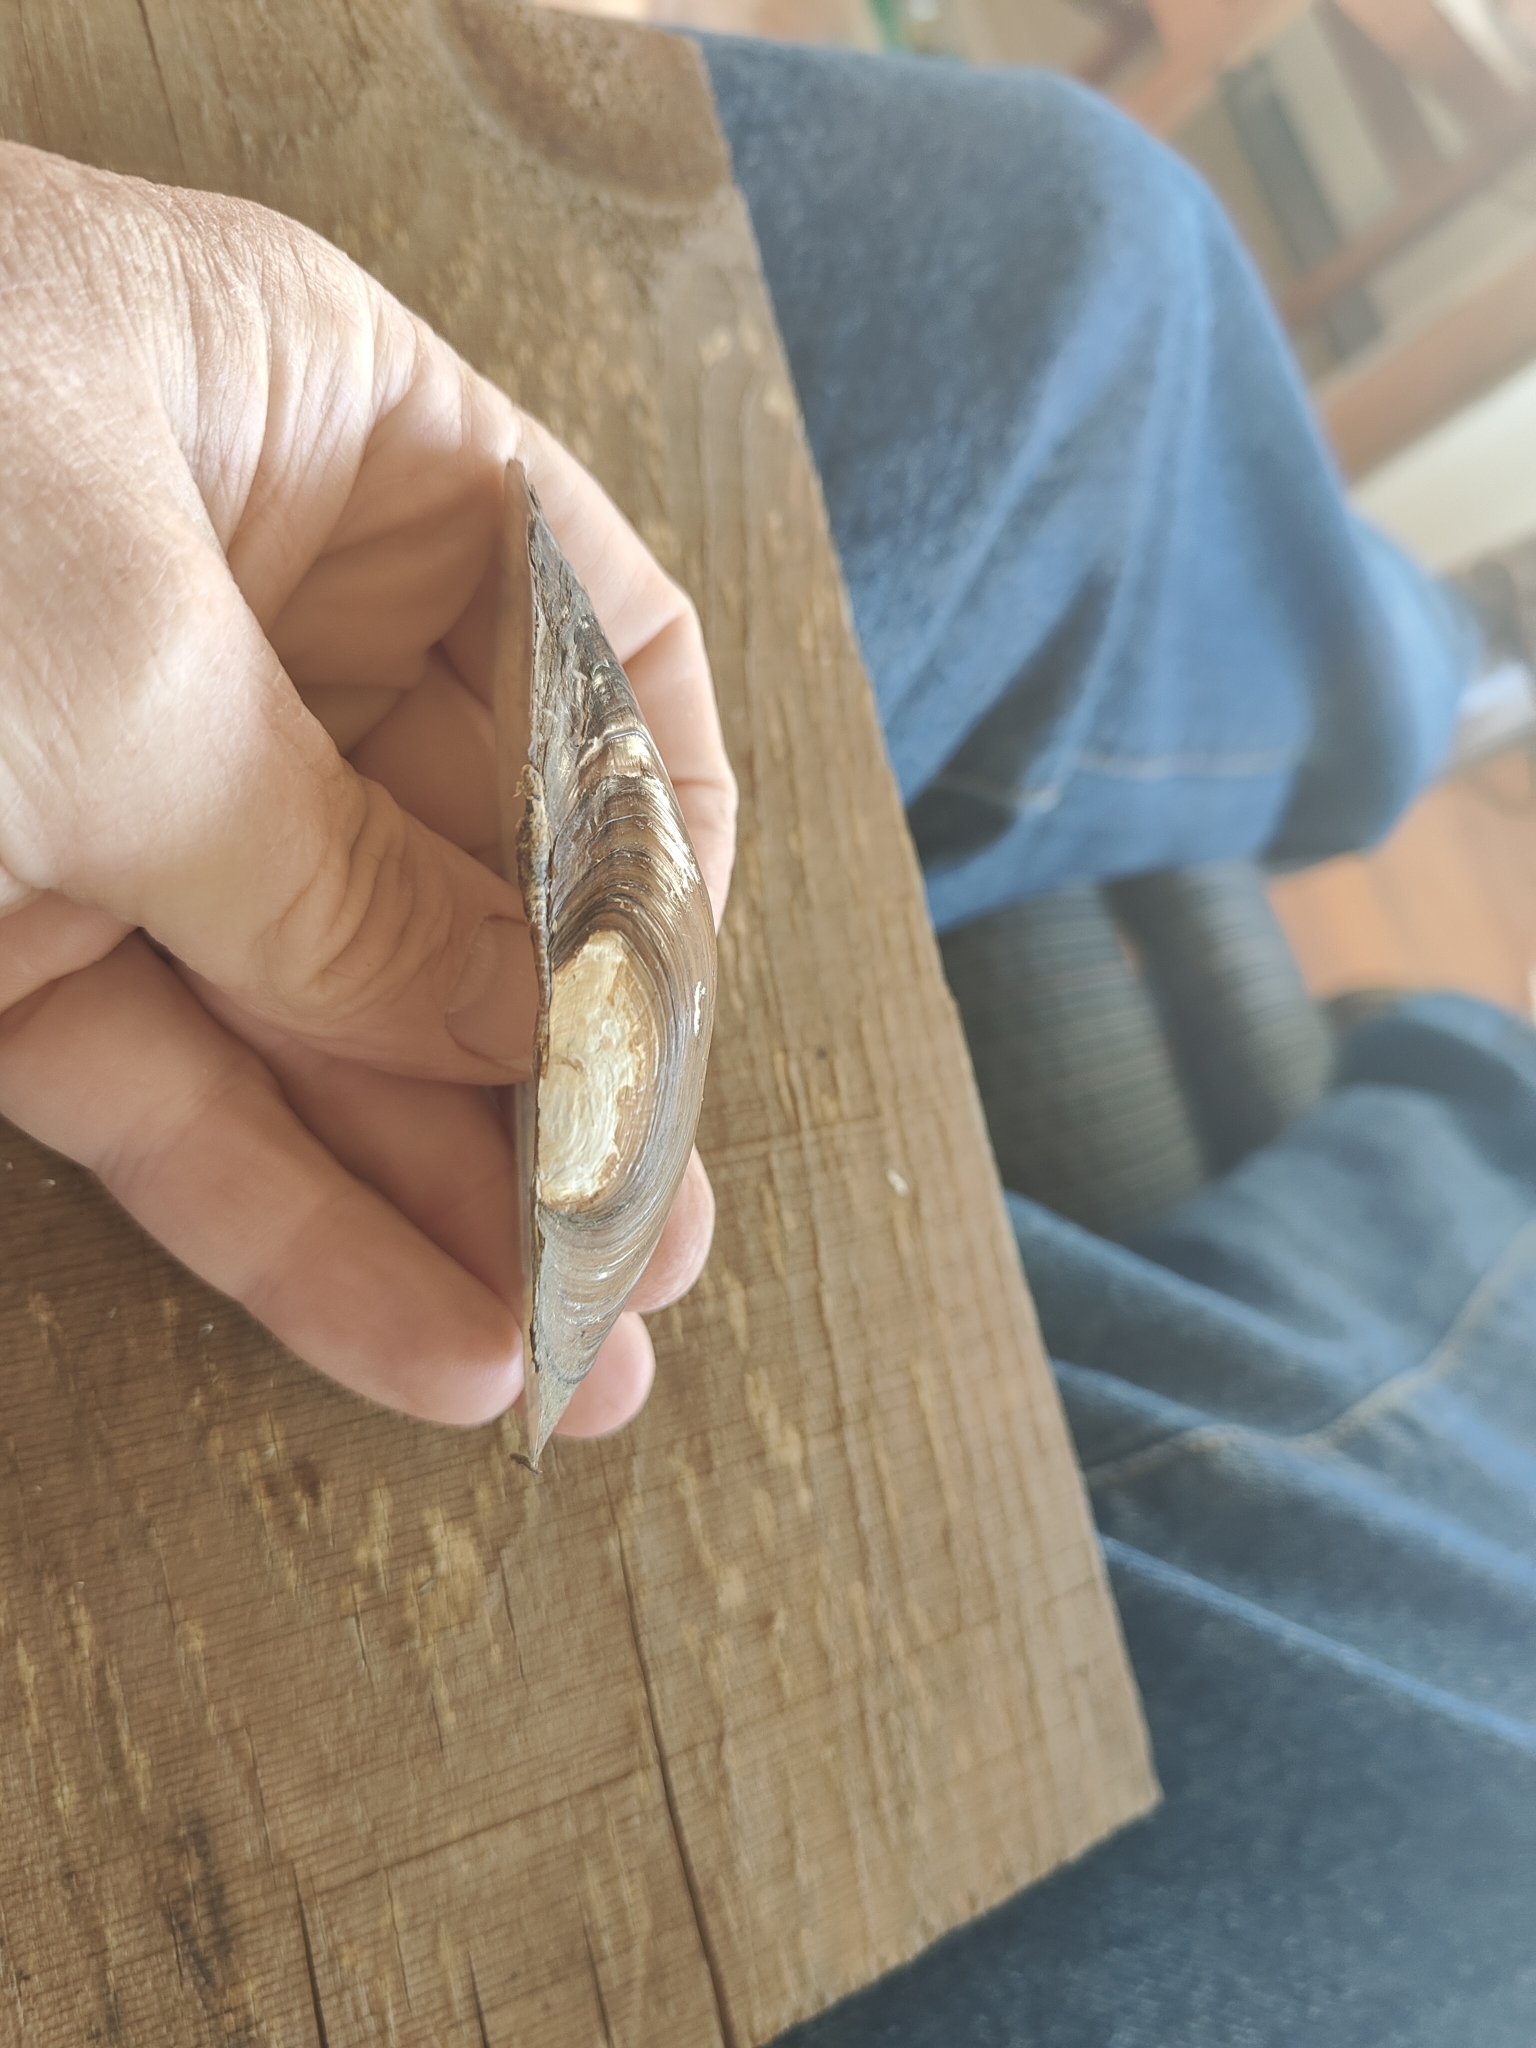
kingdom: Animalia
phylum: Mollusca
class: Bivalvia
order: Unionida
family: Unionidae
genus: Utterbackia
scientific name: Utterbackia imbecillis
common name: Paper pondshell
